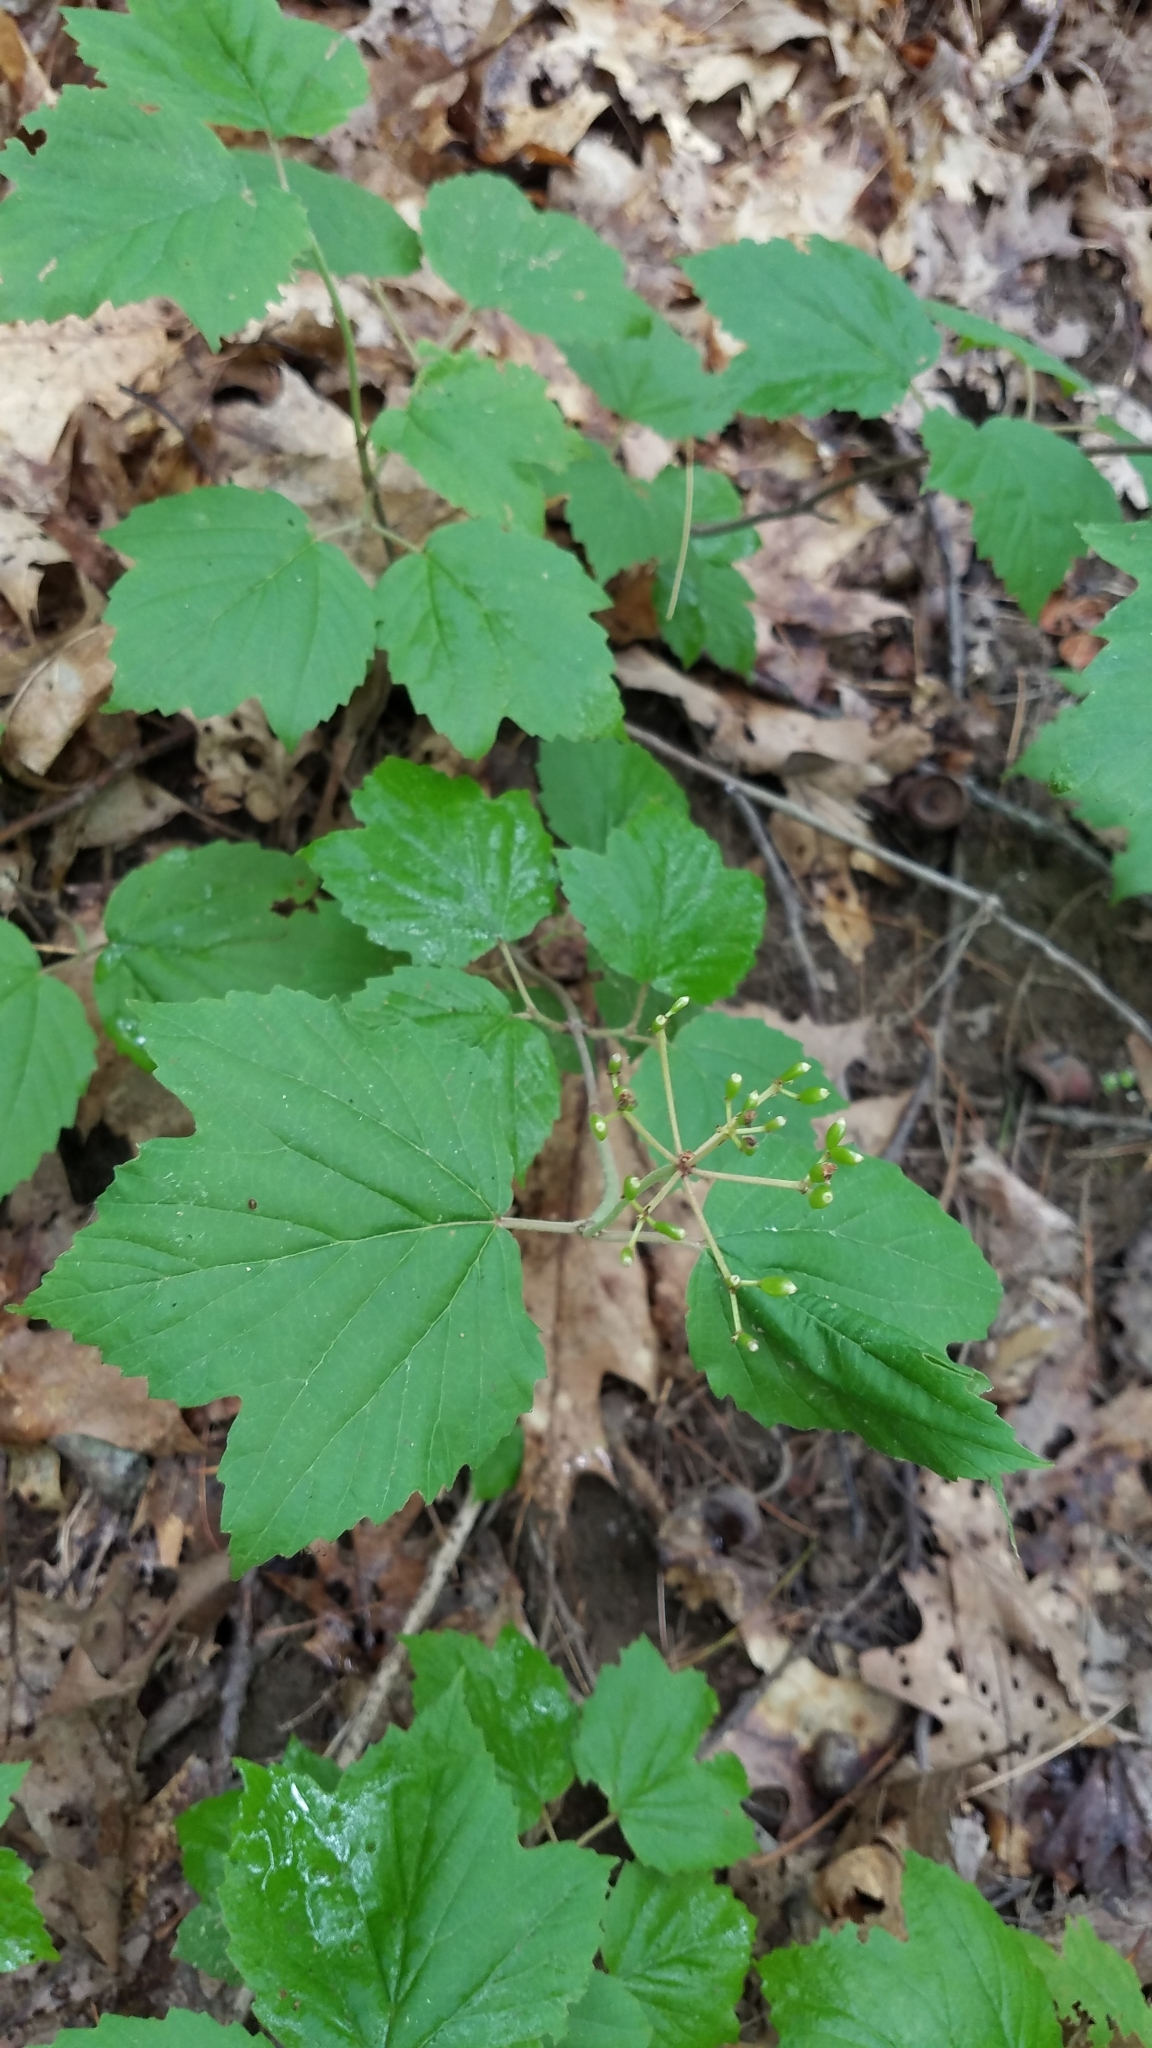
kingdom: Plantae
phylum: Tracheophyta
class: Magnoliopsida
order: Dipsacales
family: Viburnaceae
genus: Viburnum
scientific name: Viburnum acerifolium
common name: Dockmackie
